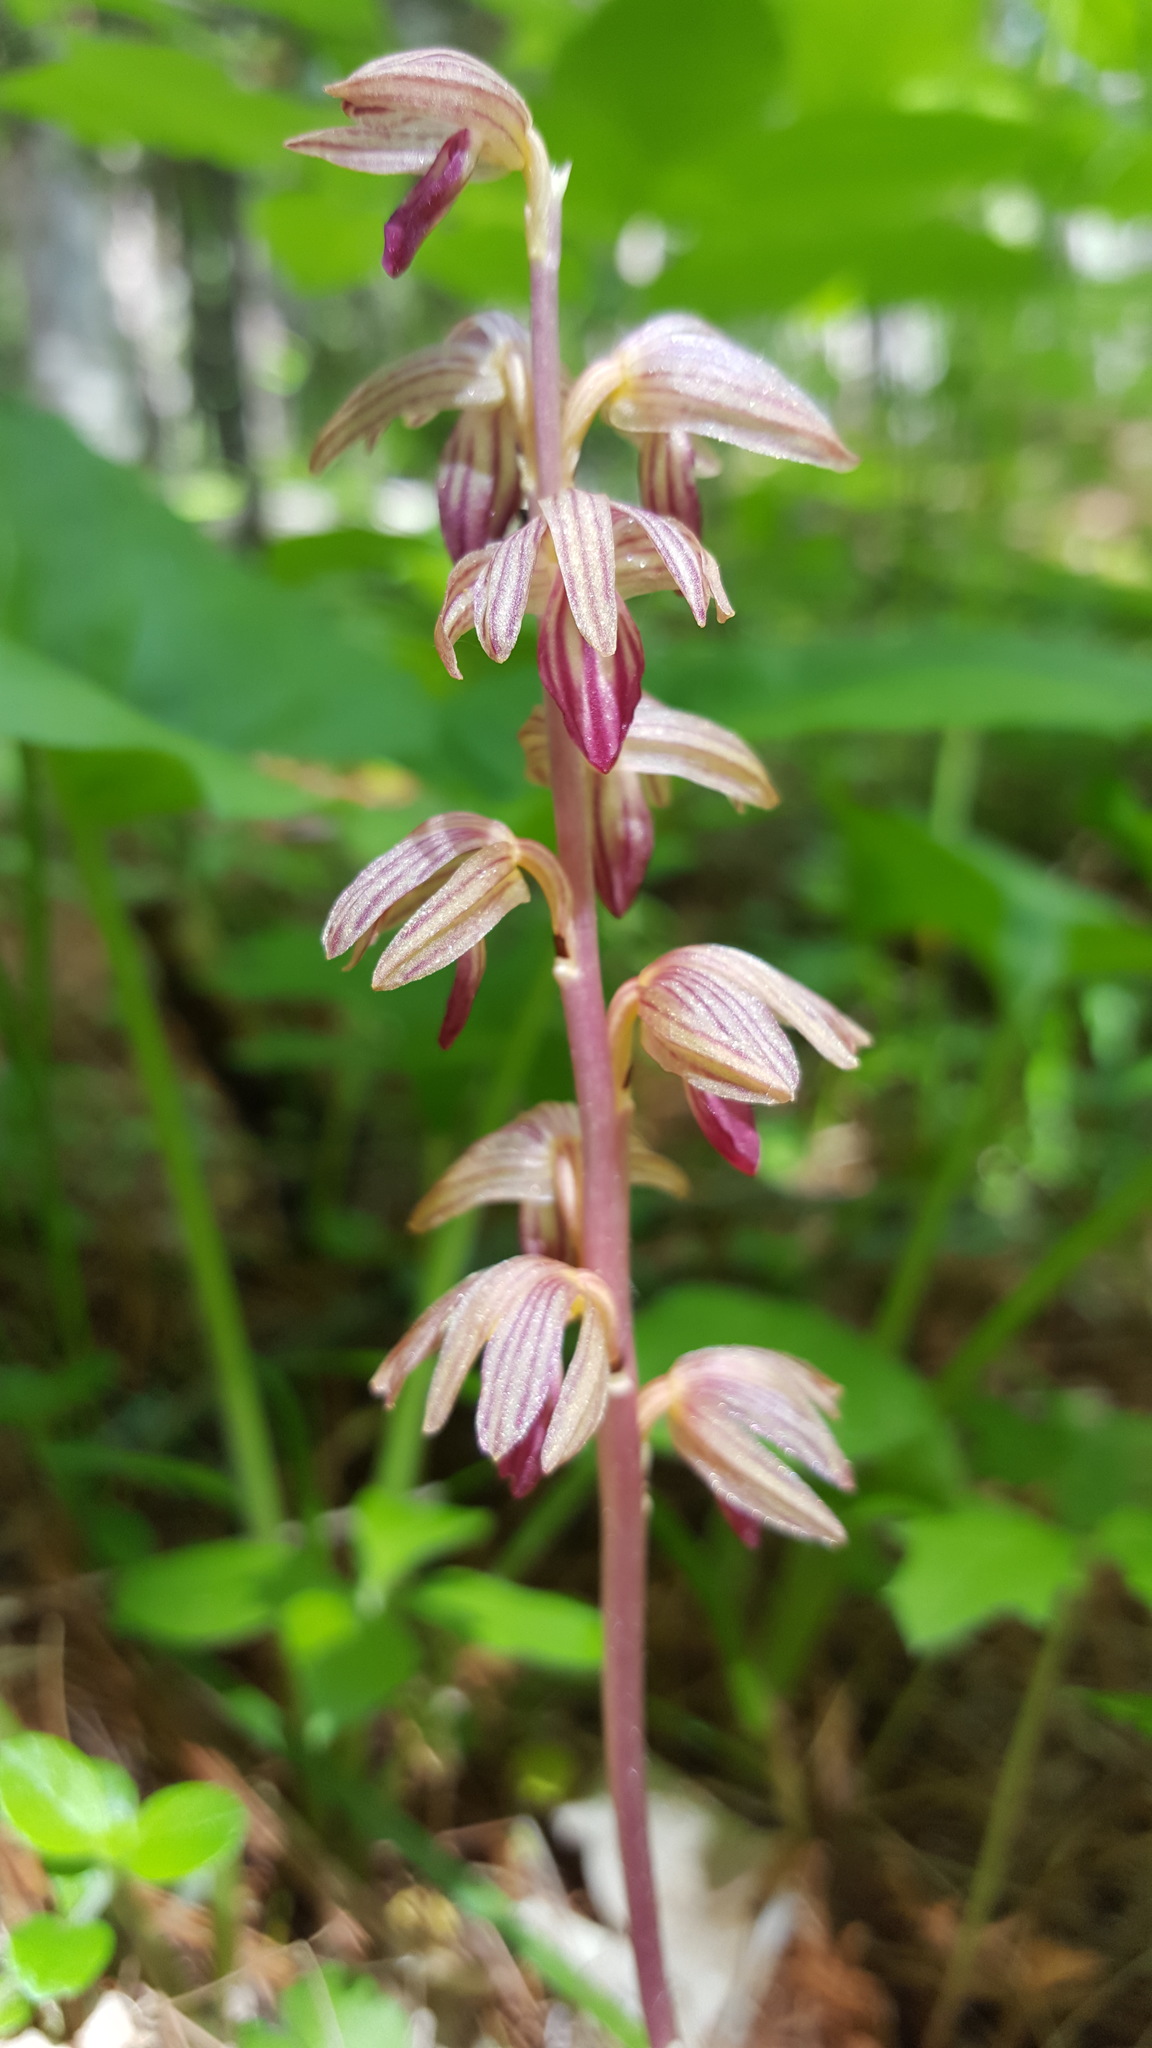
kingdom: Plantae
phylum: Tracheophyta
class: Liliopsida
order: Asparagales
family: Orchidaceae
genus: Corallorhiza
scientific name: Corallorhiza striata
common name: Hooded coralroot
